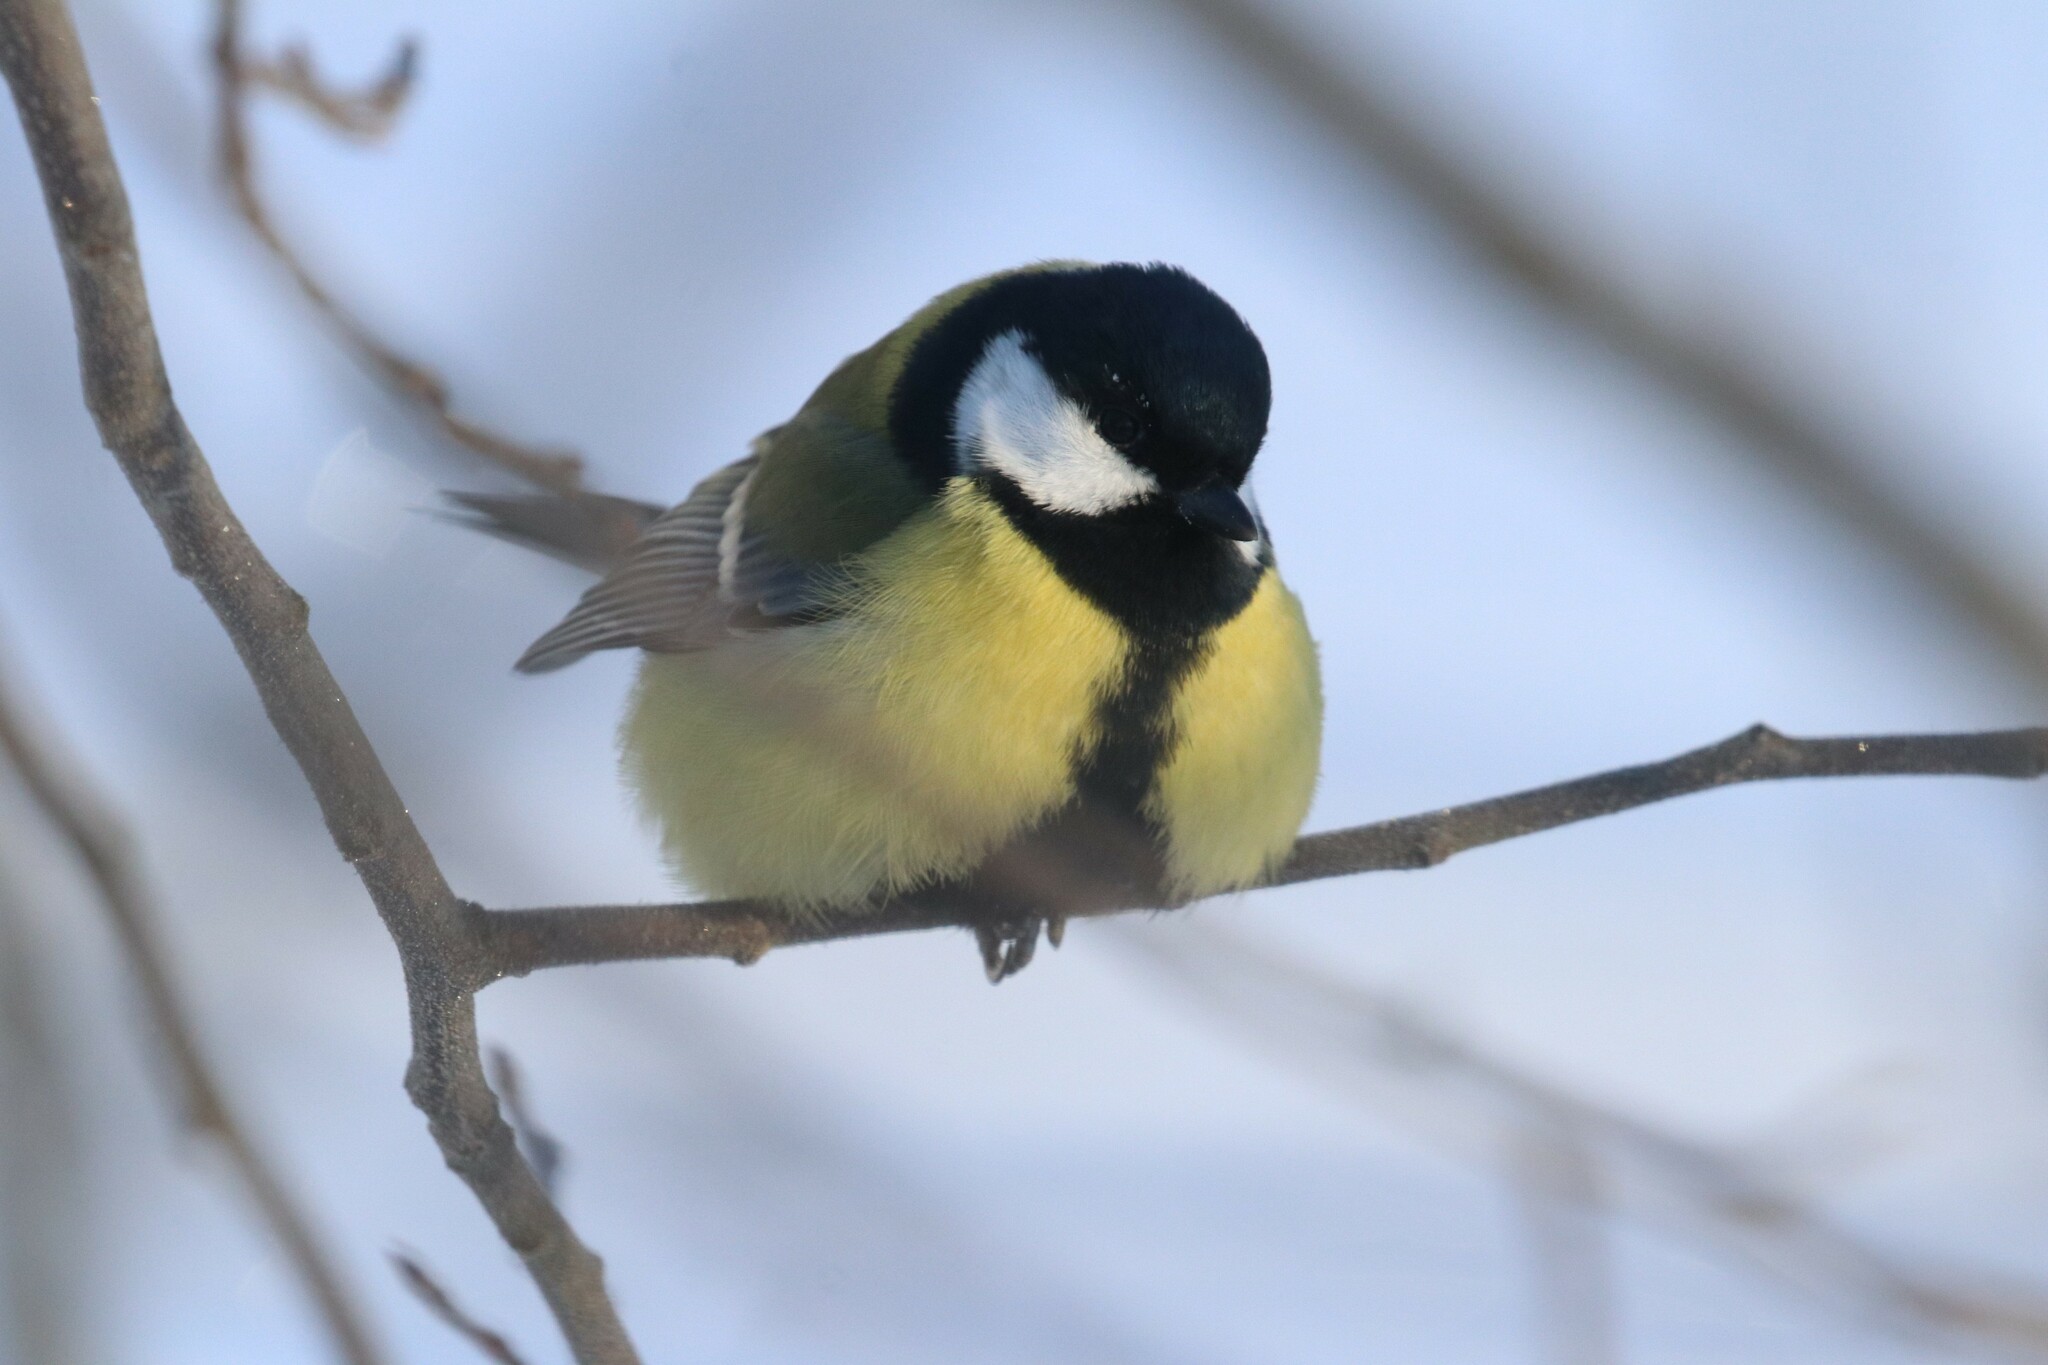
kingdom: Animalia
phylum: Chordata
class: Aves
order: Passeriformes
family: Paridae
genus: Parus
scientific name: Parus major
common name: Great tit
